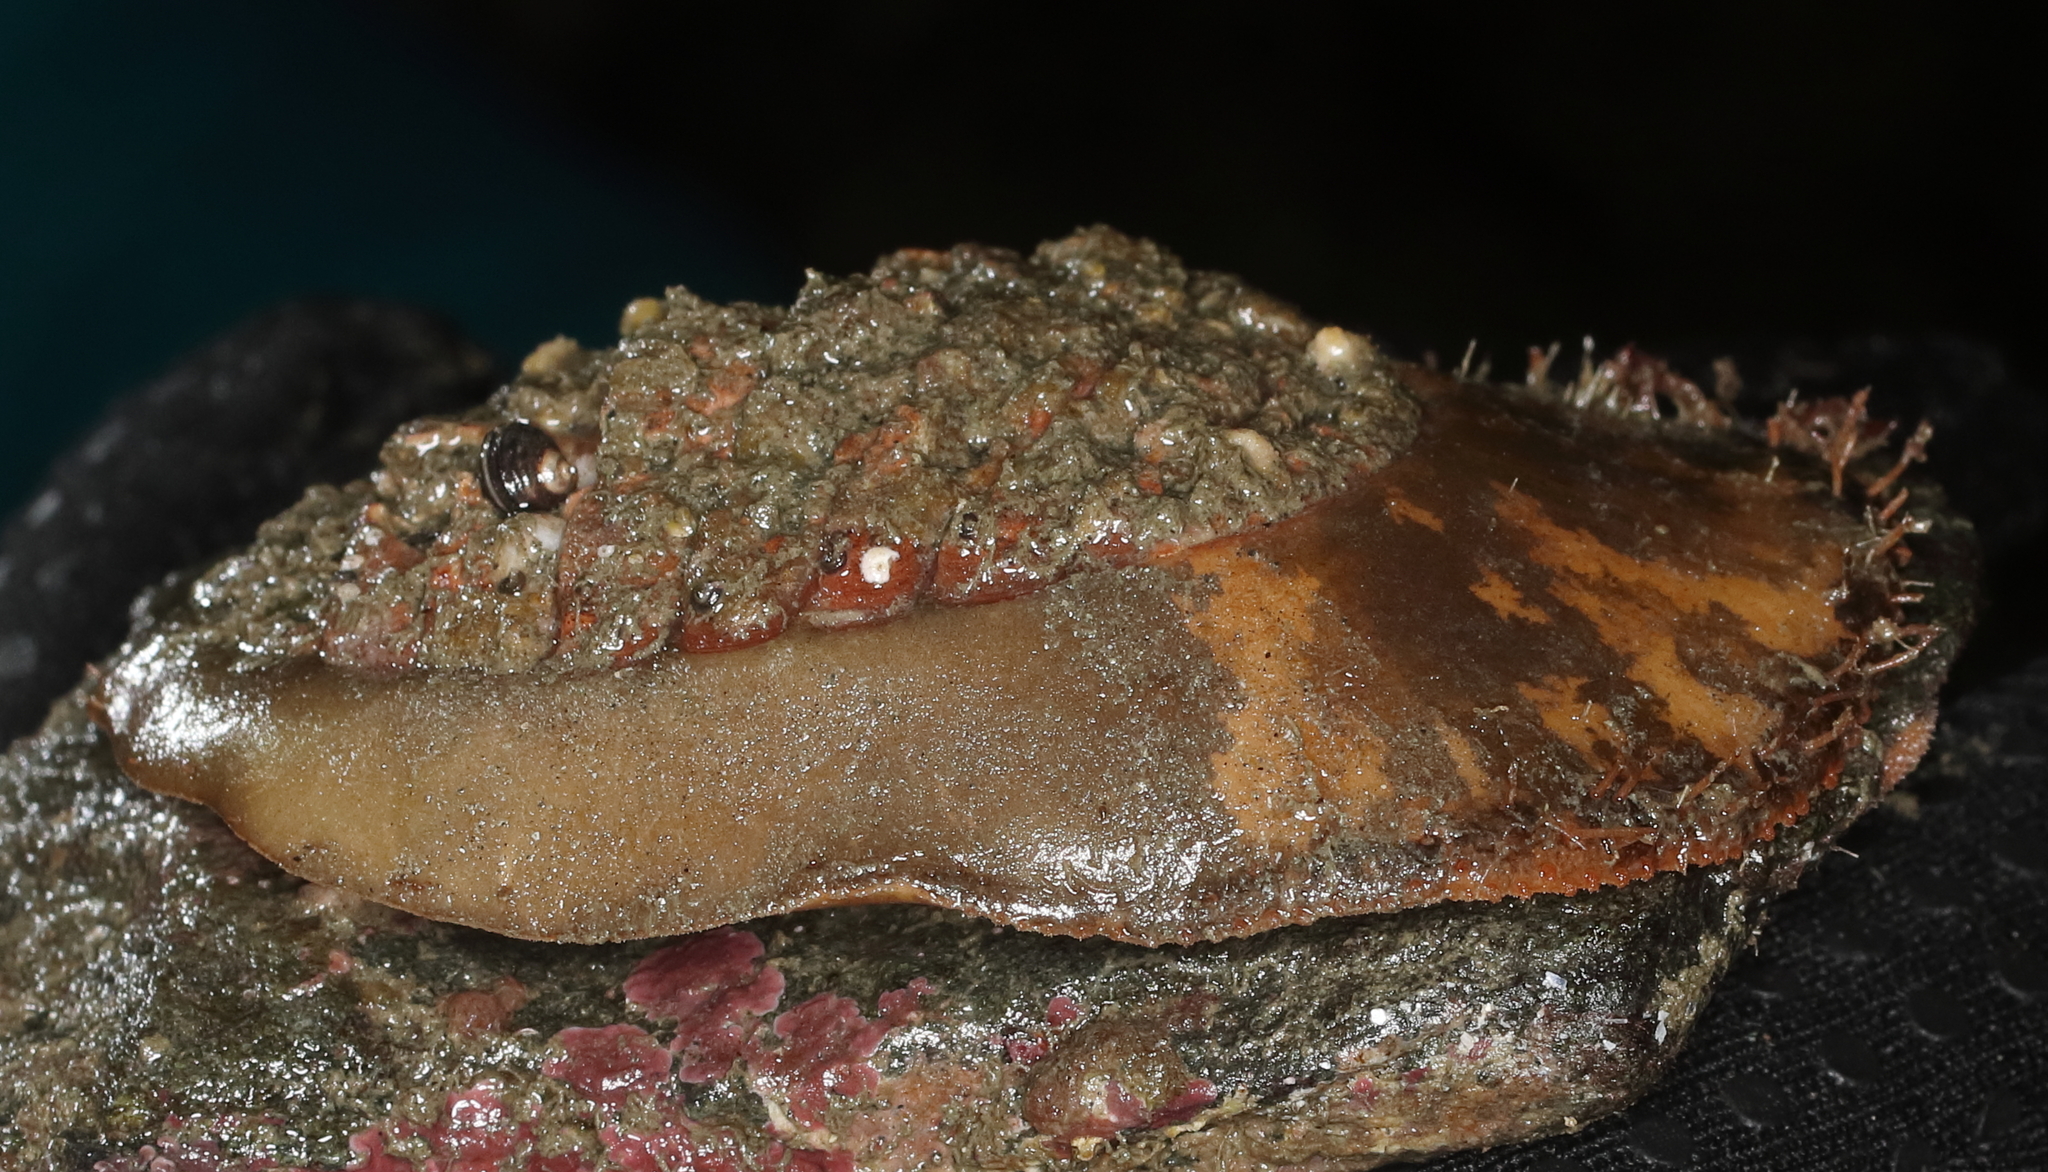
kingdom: Animalia
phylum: Mollusca
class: Polyplacophora
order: Chitonida
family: Mopaliidae
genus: Placiphorella
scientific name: Placiphorella rufa
